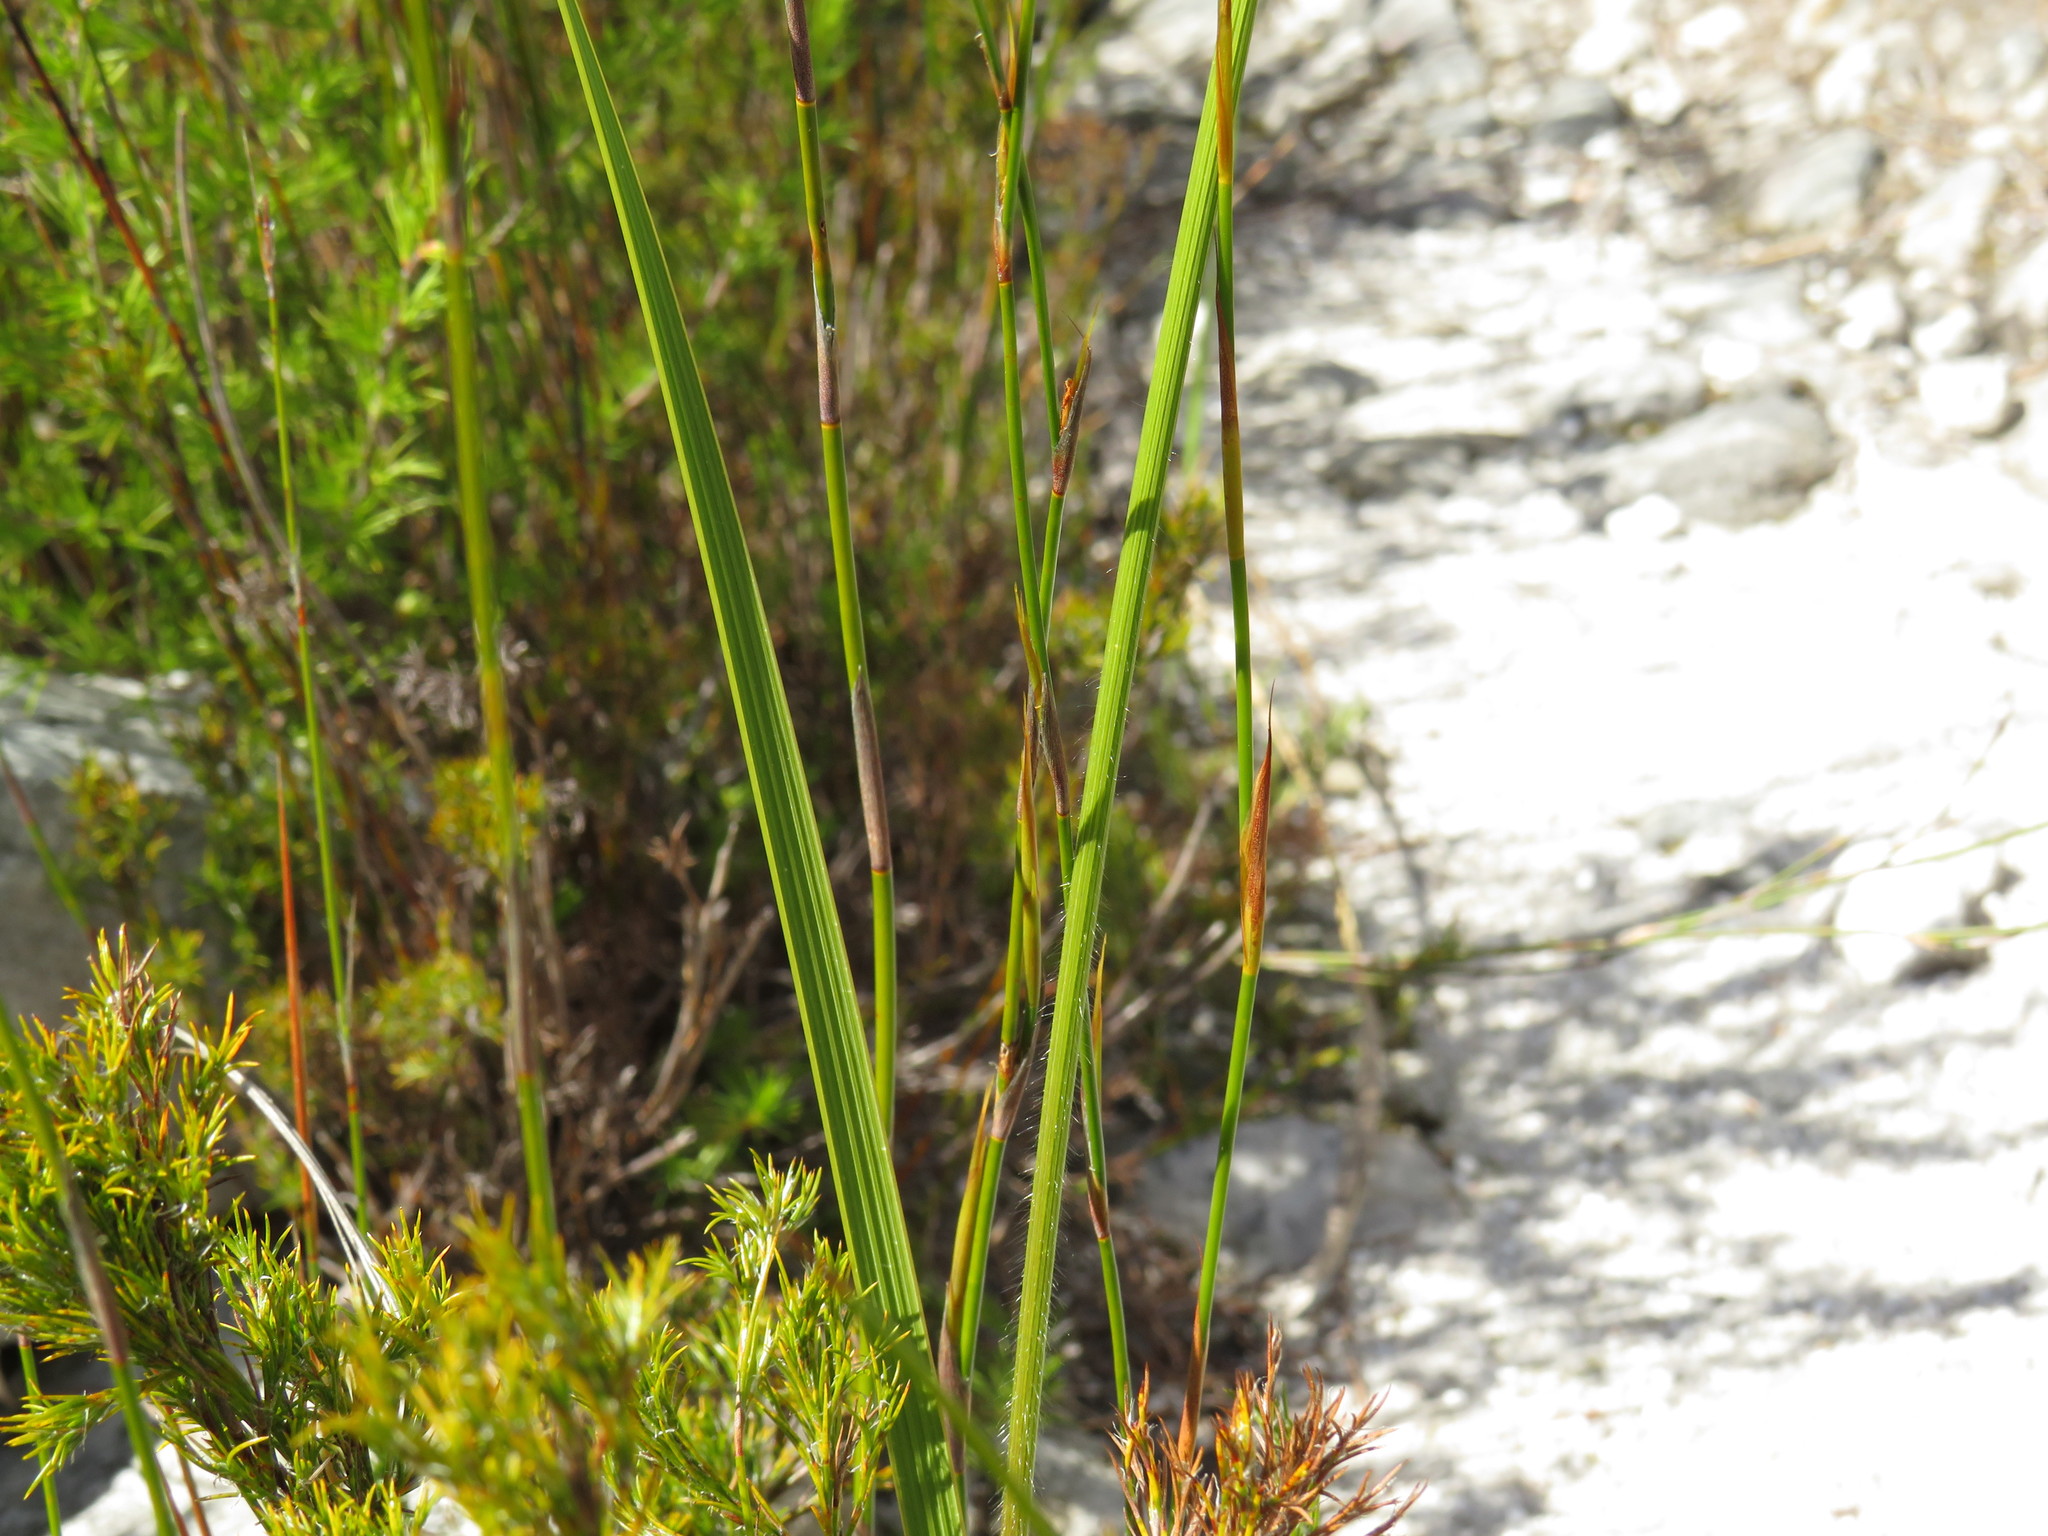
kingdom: Plantae
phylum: Tracheophyta
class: Liliopsida
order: Asparagales
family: Iridaceae
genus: Gladiolus
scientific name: Gladiolus hirsutus
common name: Small pink afrikaner
